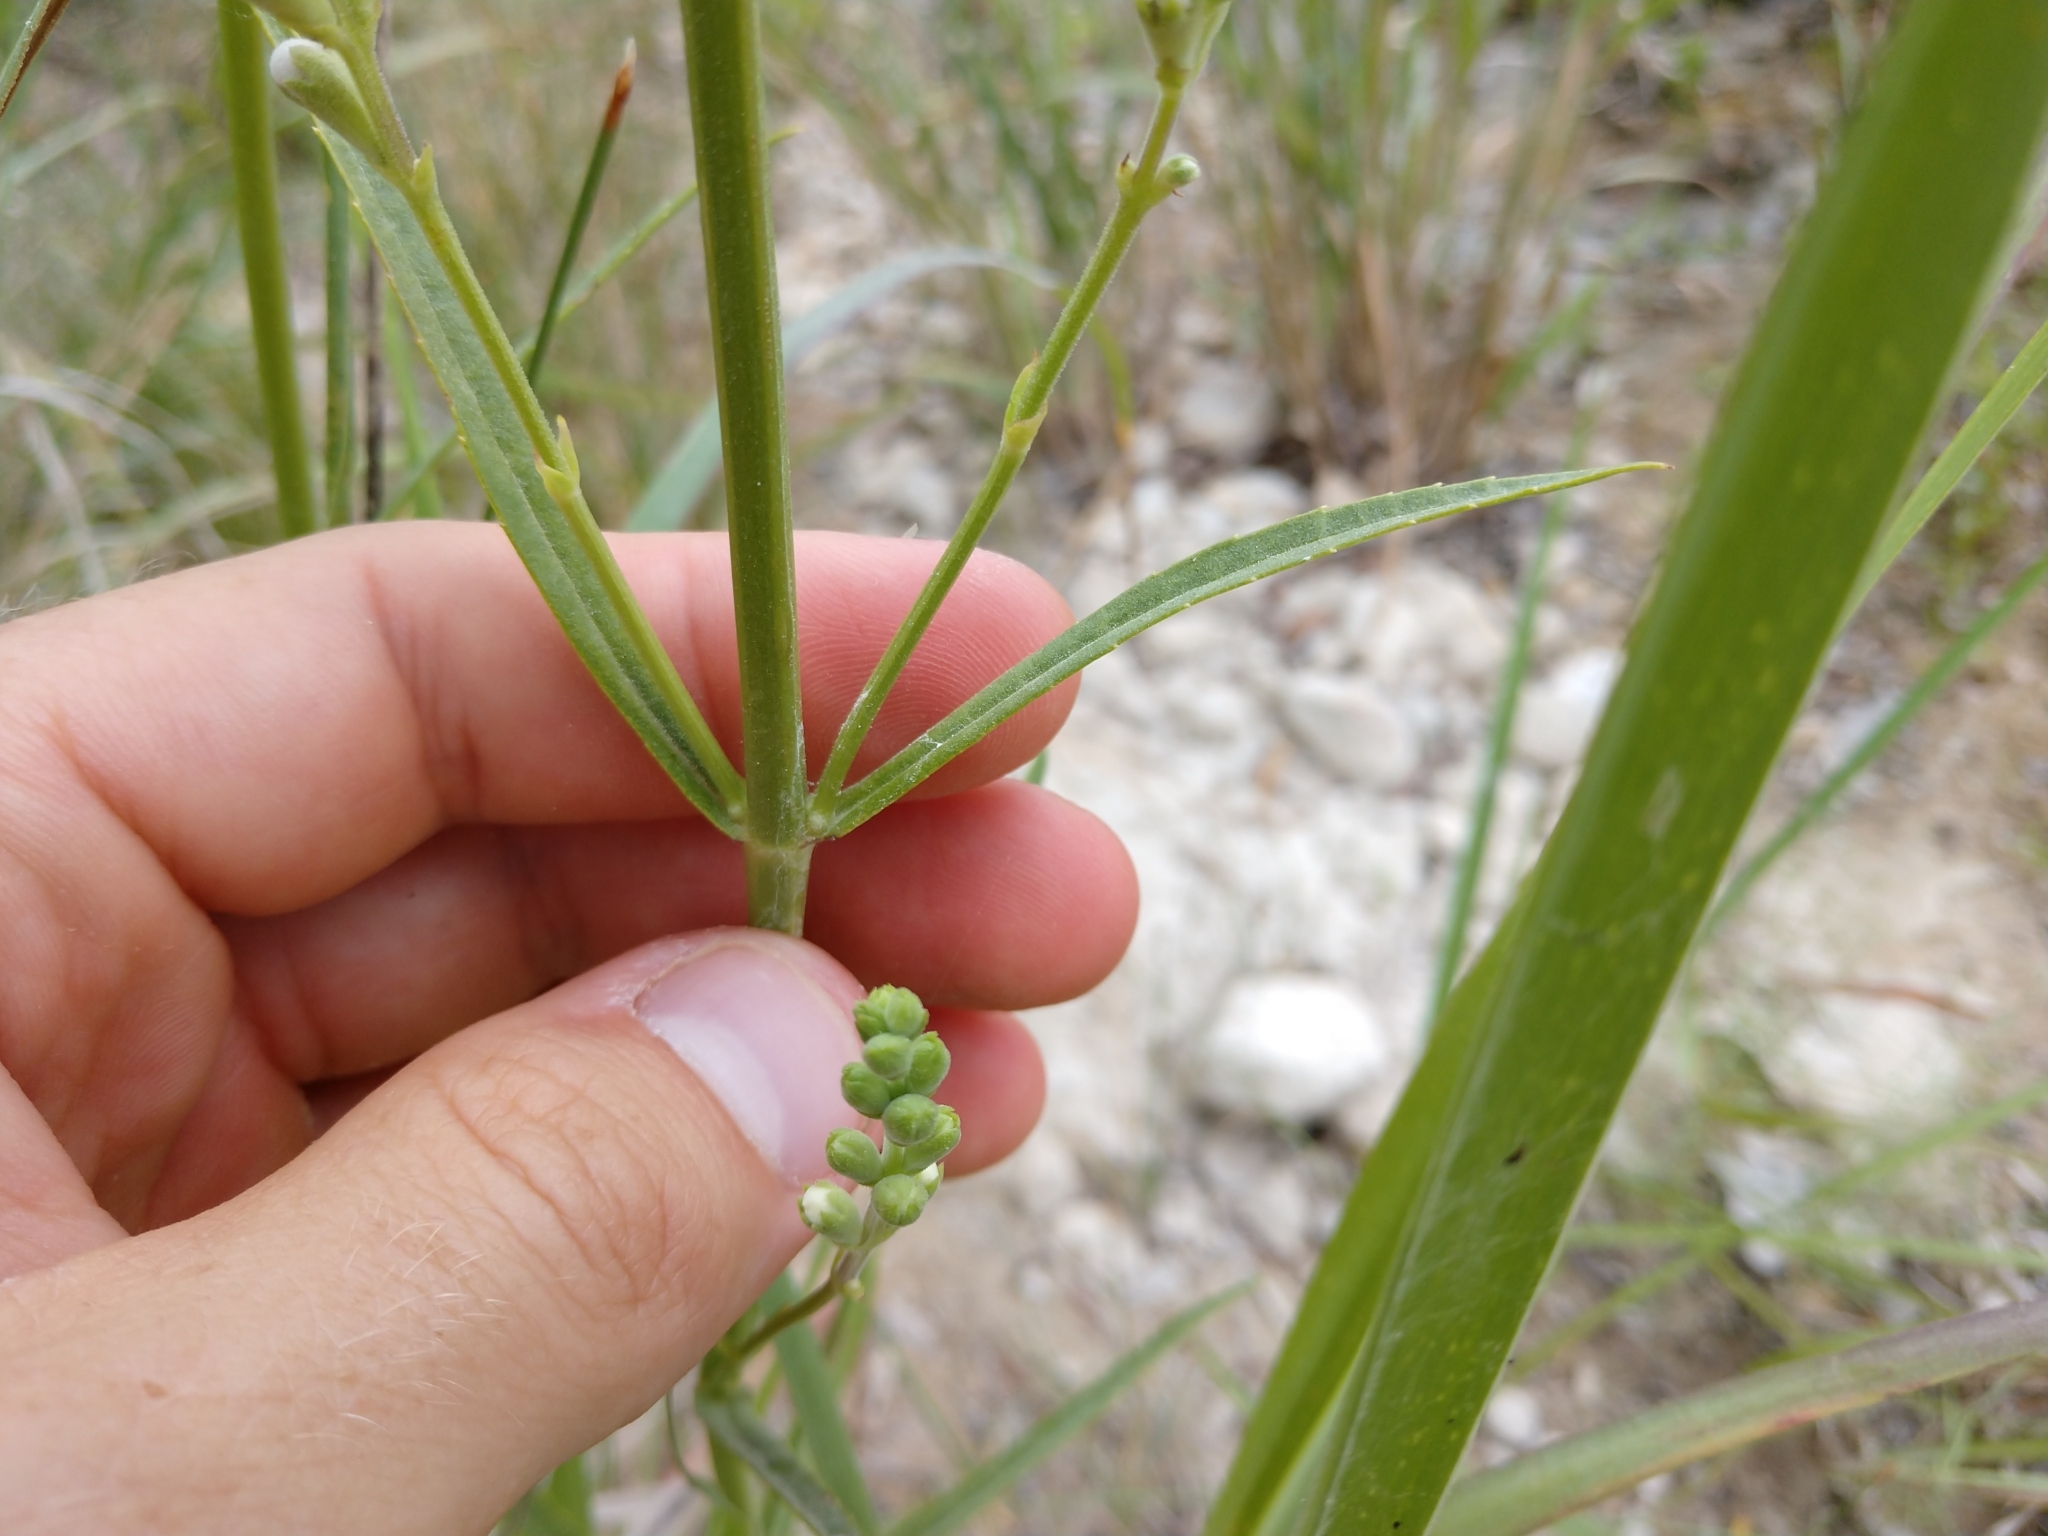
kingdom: Plantae
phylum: Tracheophyta
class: Magnoliopsida
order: Lamiales
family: Lamiaceae
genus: Physostegia
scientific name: Physostegia angustifolia
